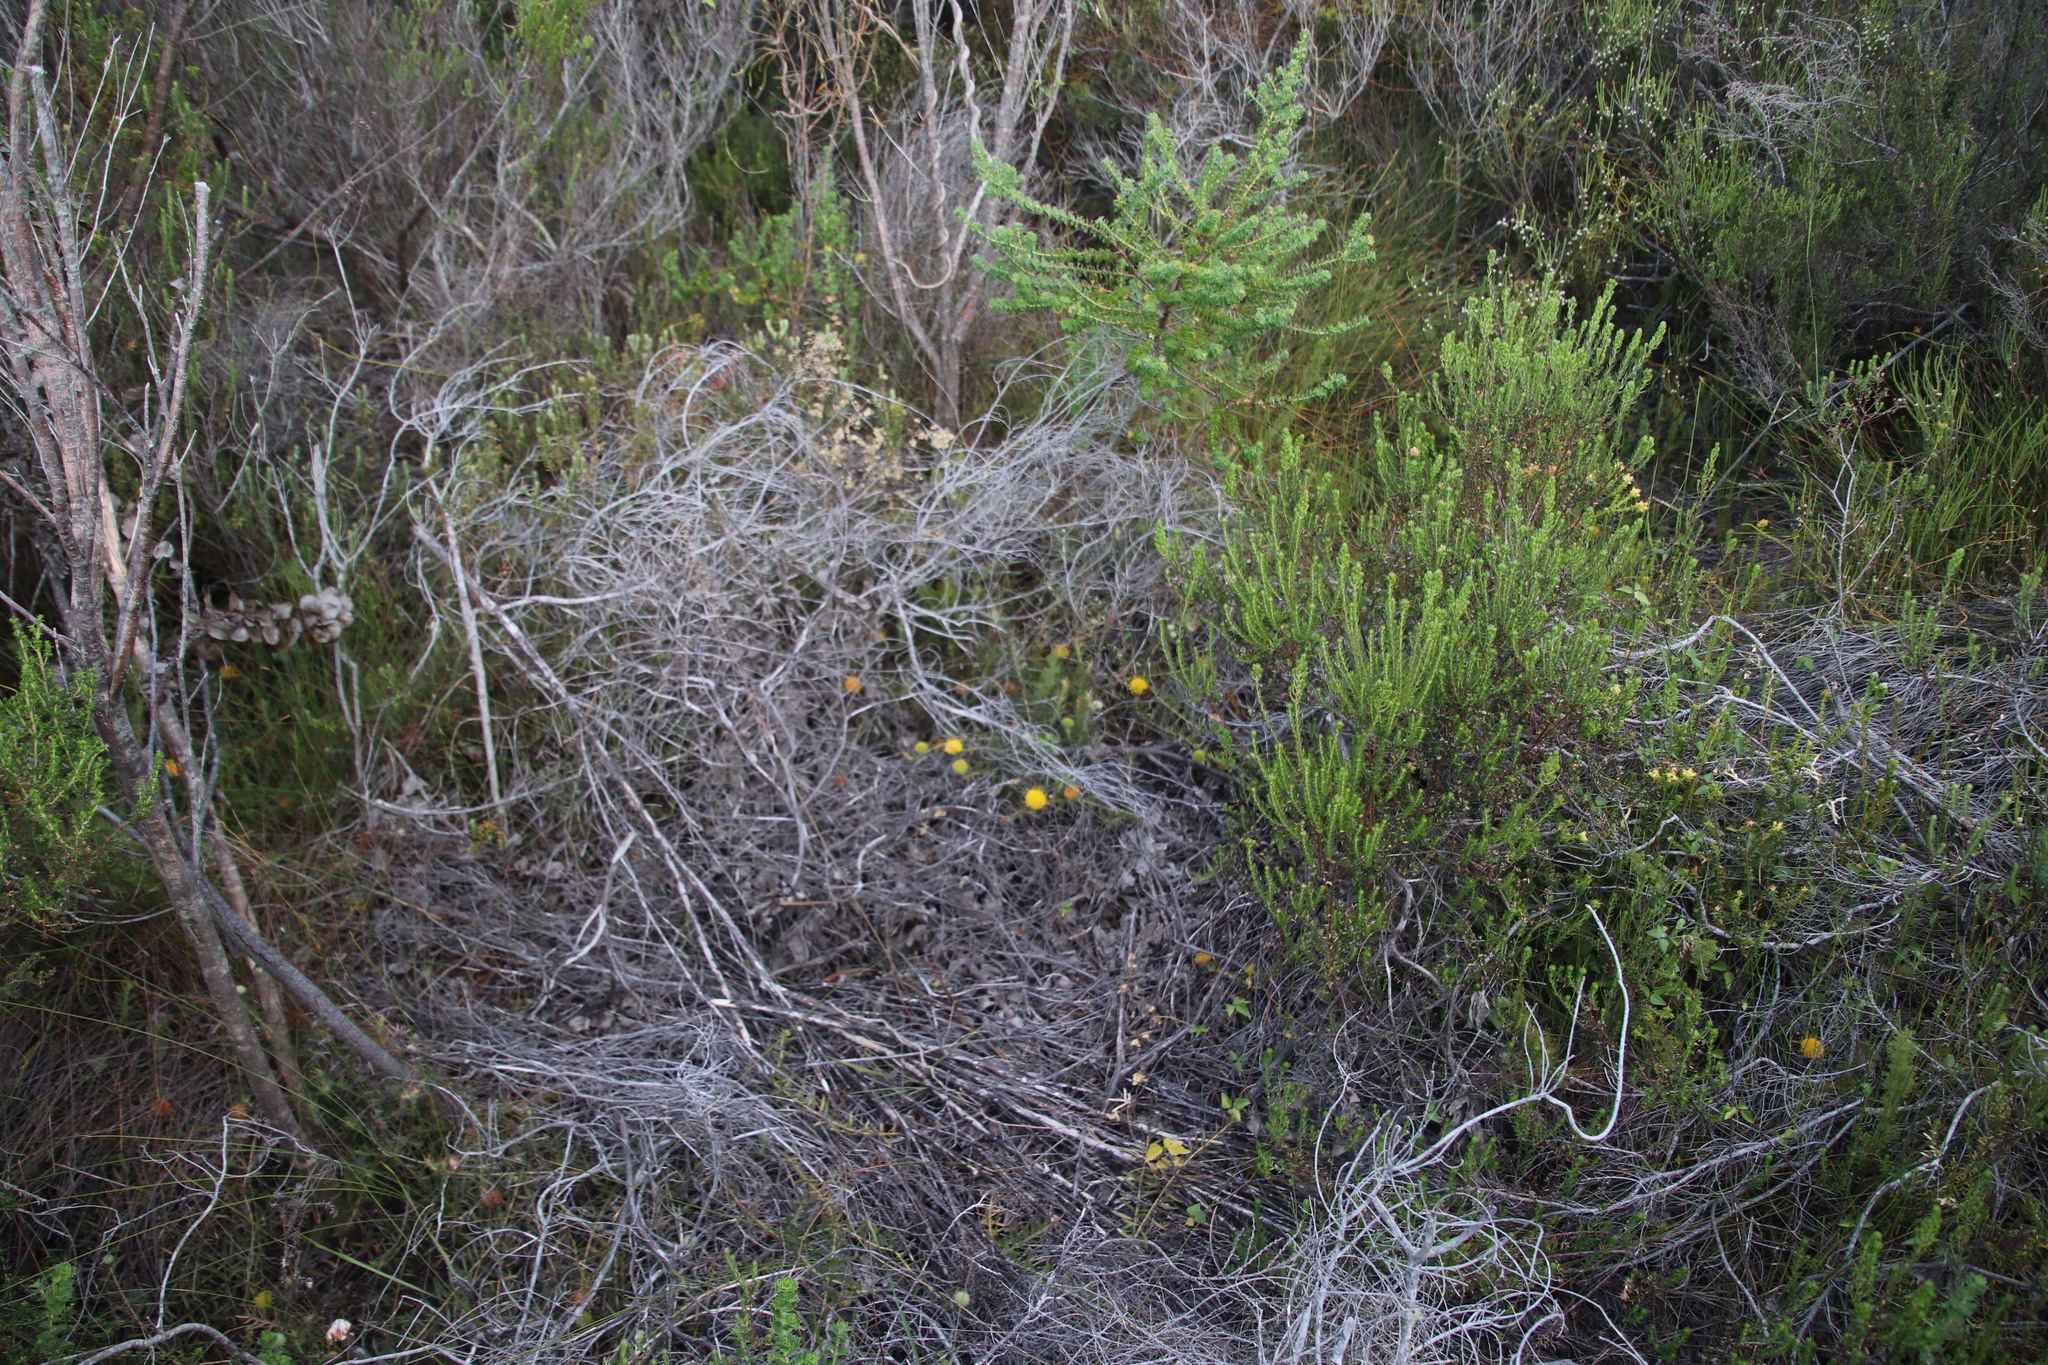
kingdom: Plantae
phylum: Tracheophyta
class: Magnoliopsida
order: Proteales
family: Proteaceae
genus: Leucospermum
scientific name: Leucospermum prostratum
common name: Yellow-trailing pincushion
